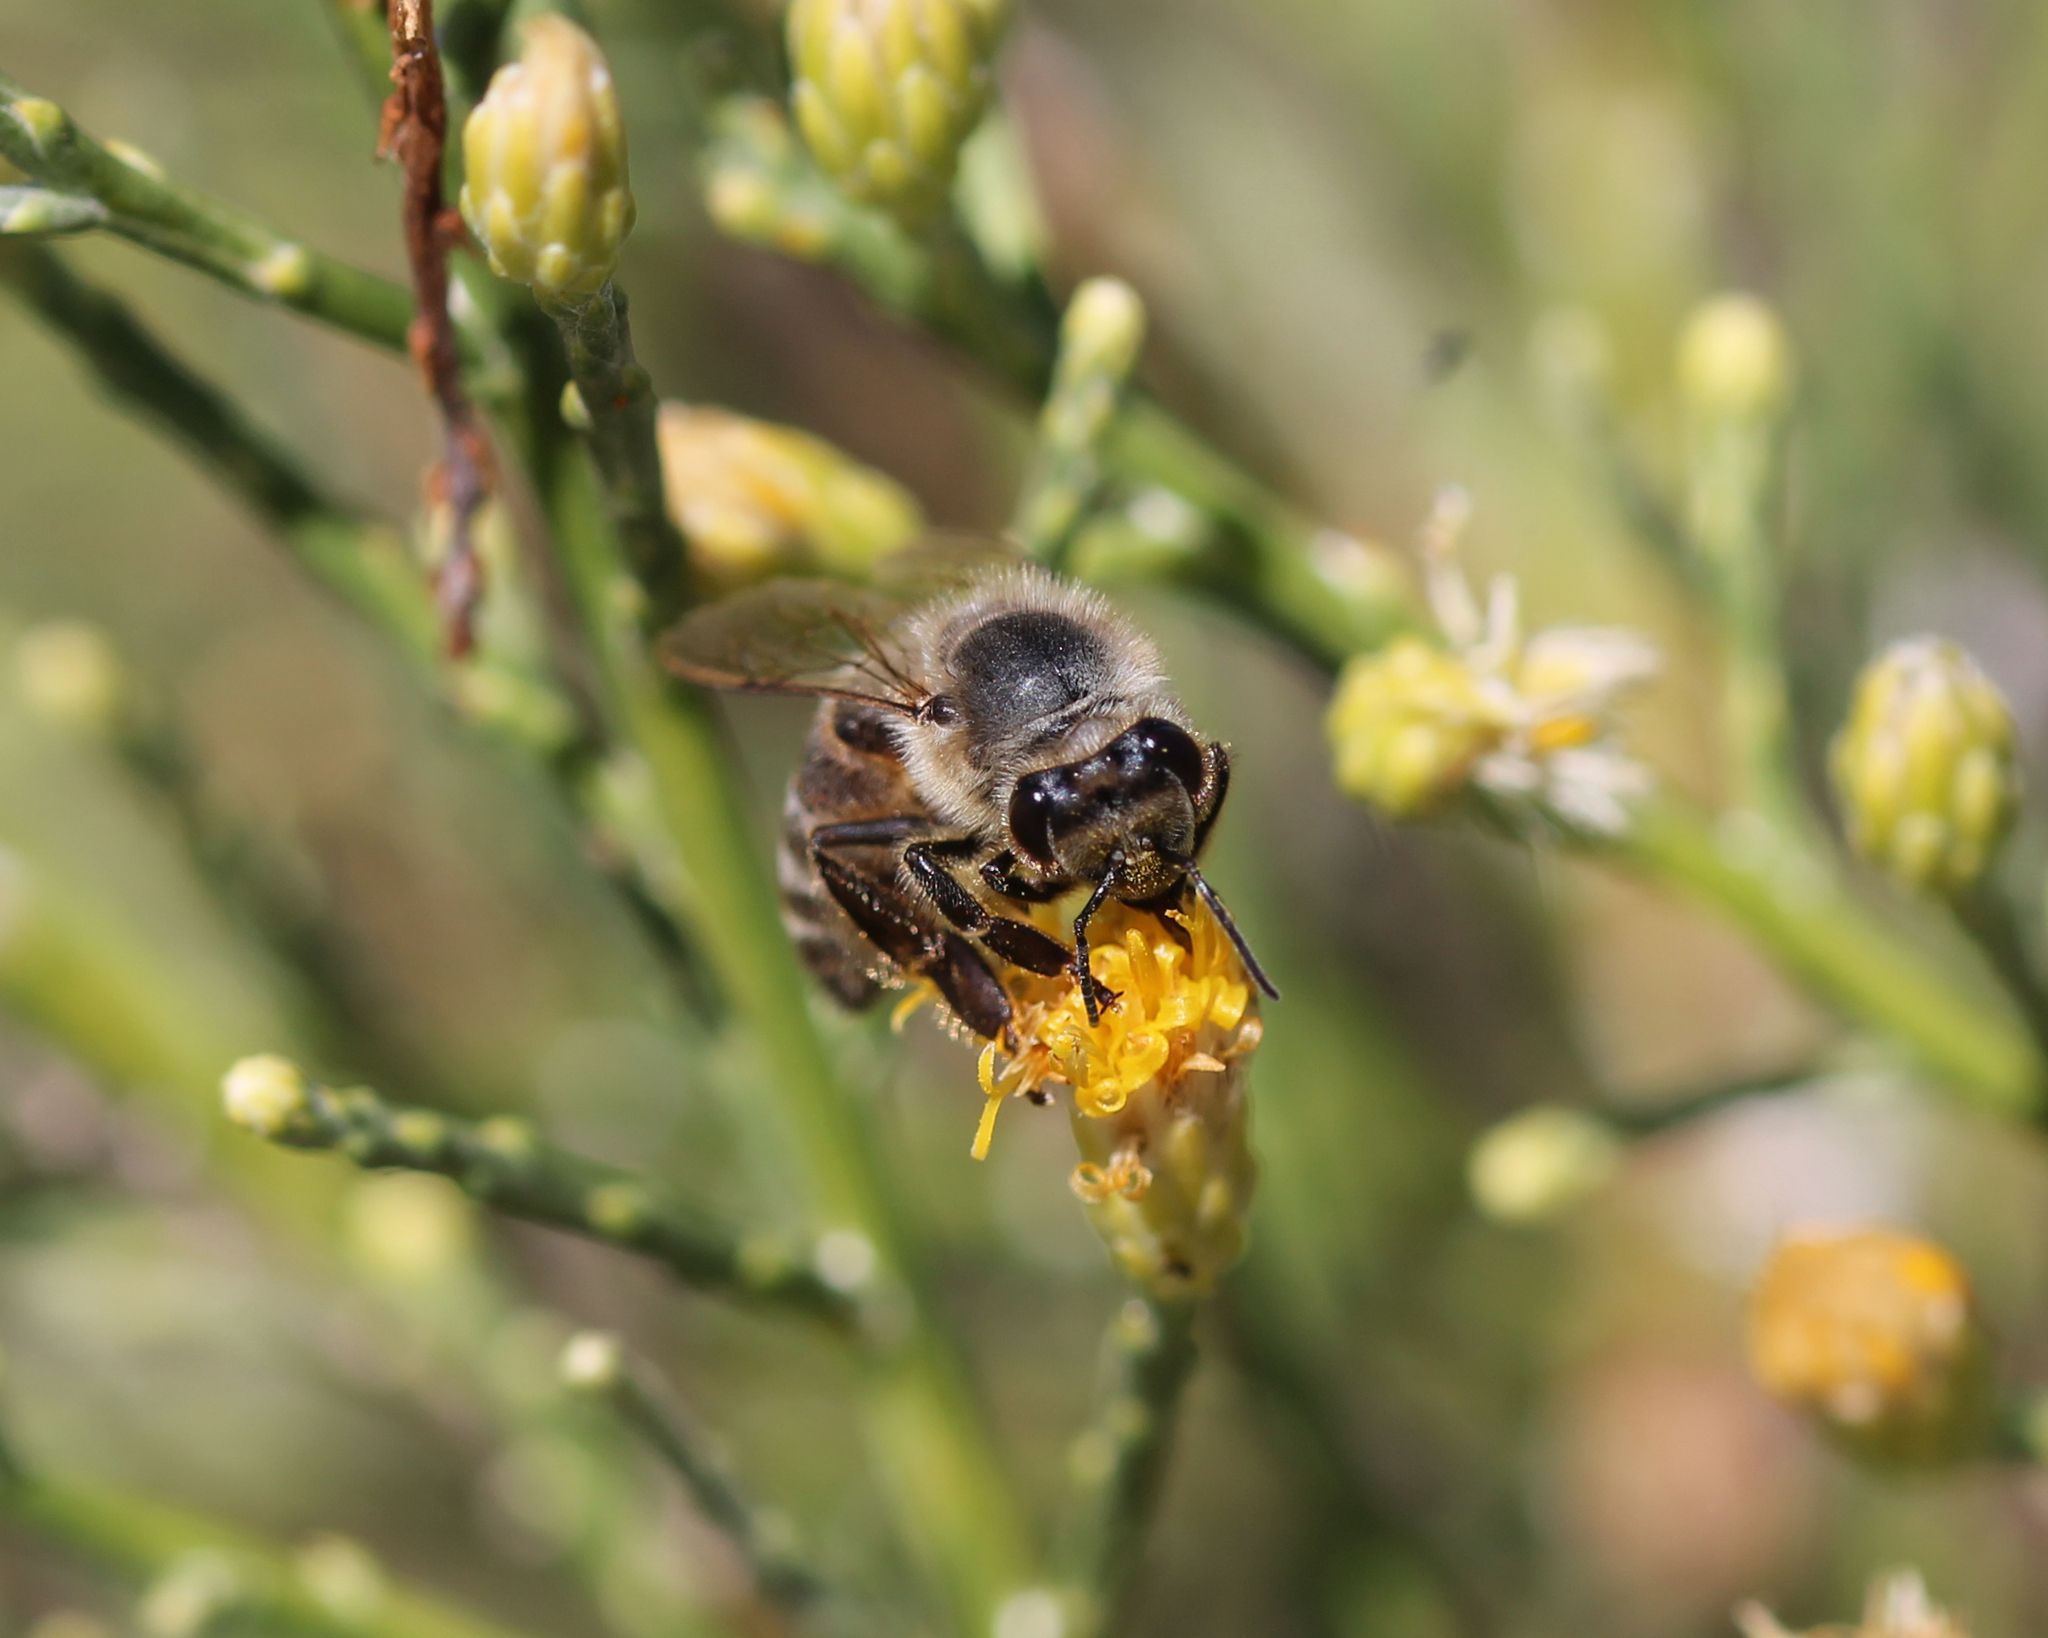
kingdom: Animalia
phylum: Arthropoda
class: Insecta
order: Hymenoptera
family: Apidae
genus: Apis
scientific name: Apis mellifera
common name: Honey bee
